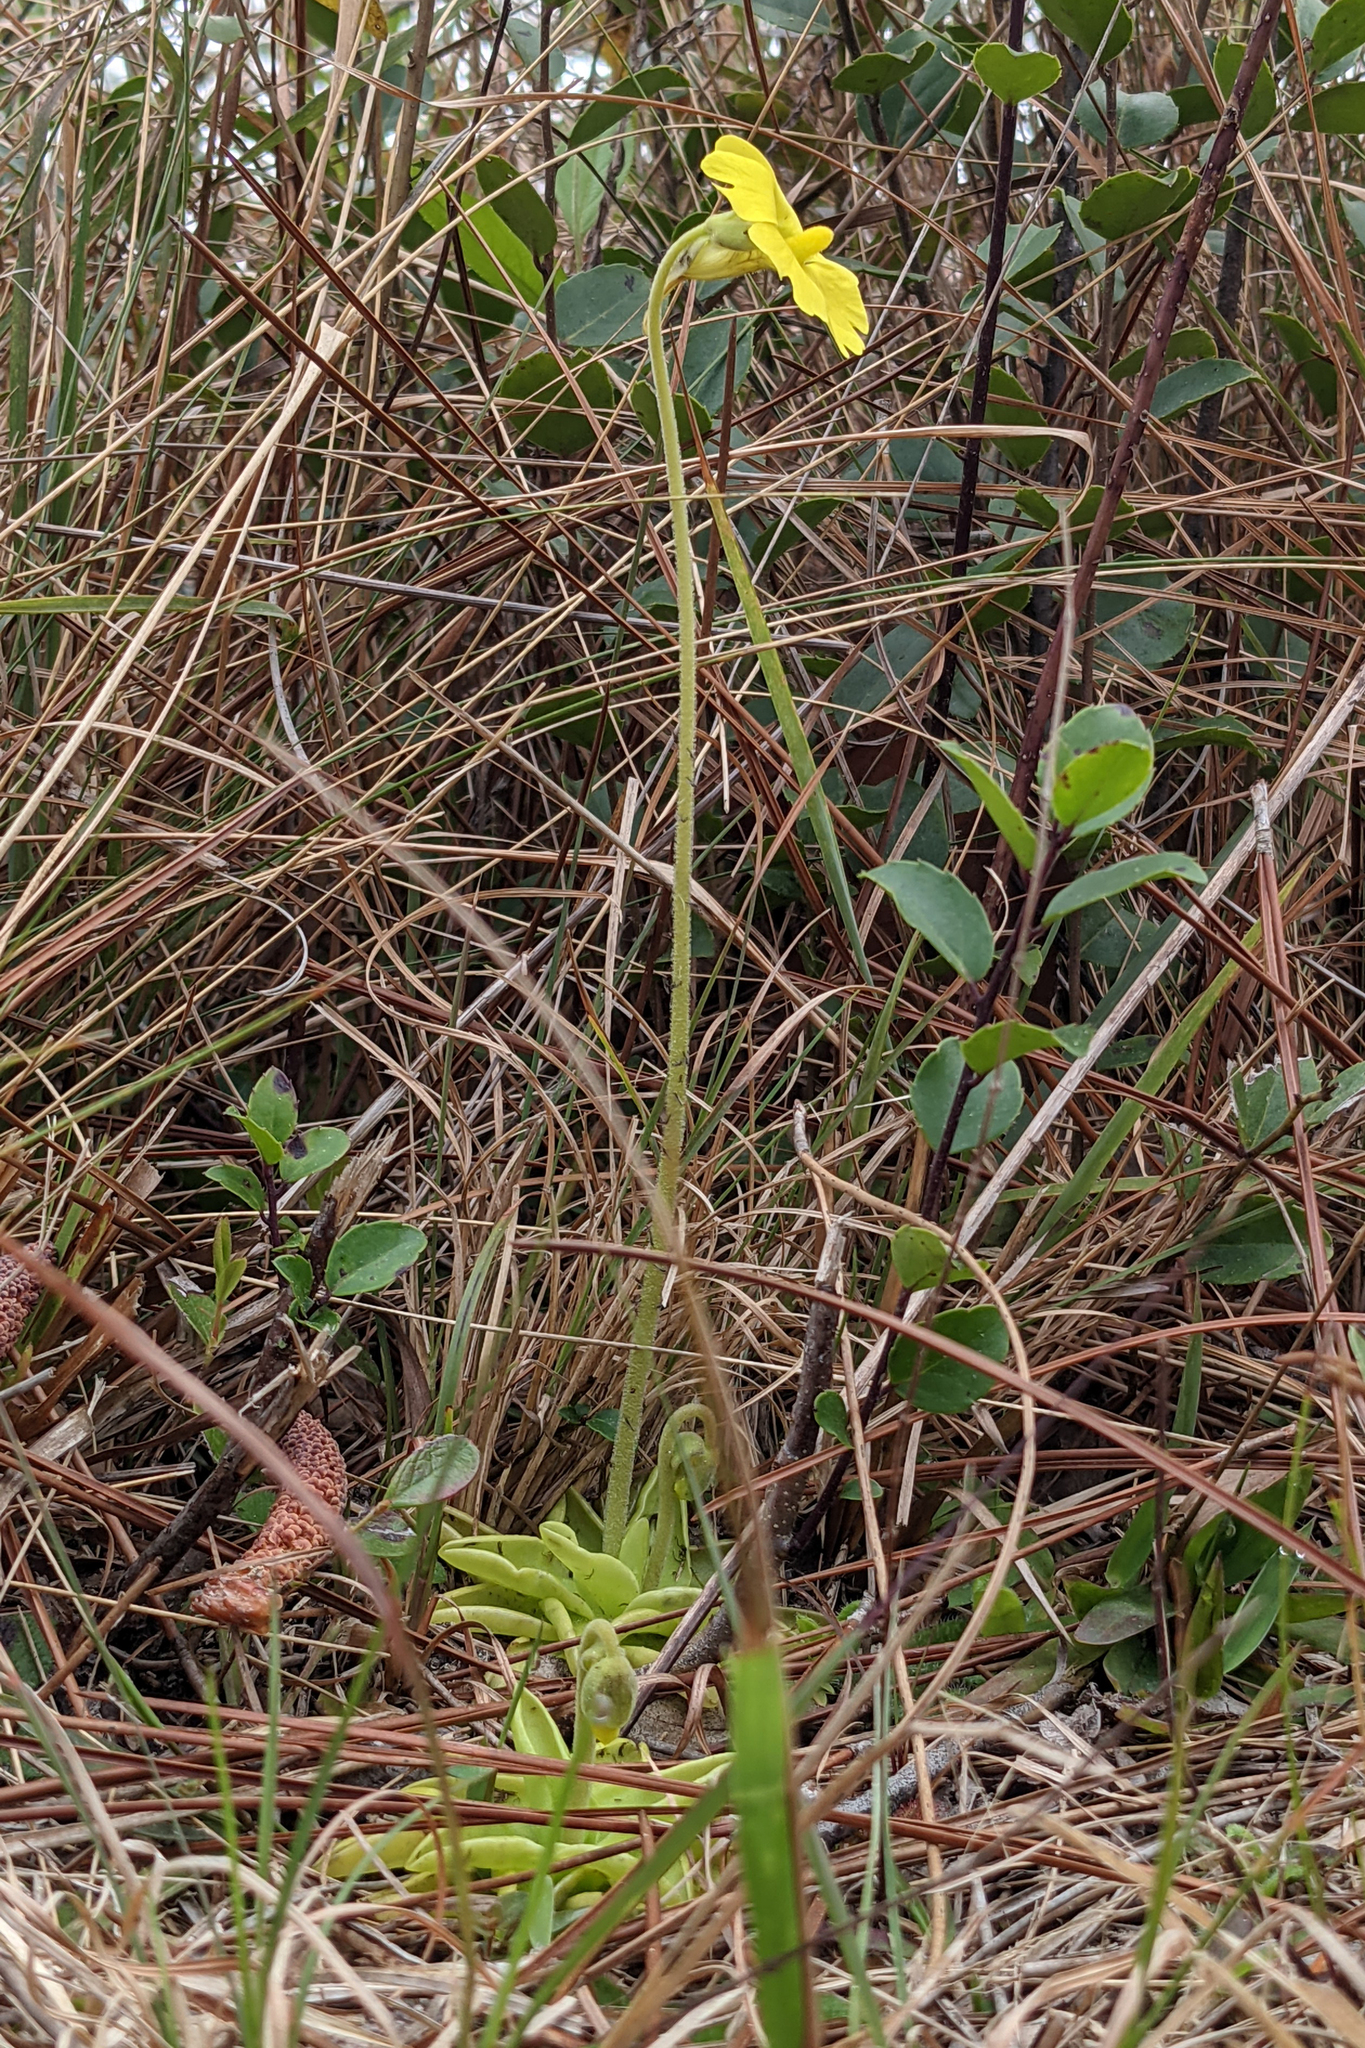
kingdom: Plantae
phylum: Tracheophyta
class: Magnoliopsida
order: Lamiales
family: Lentibulariaceae
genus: Pinguicula
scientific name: Pinguicula lutea
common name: Yellow butterwort
